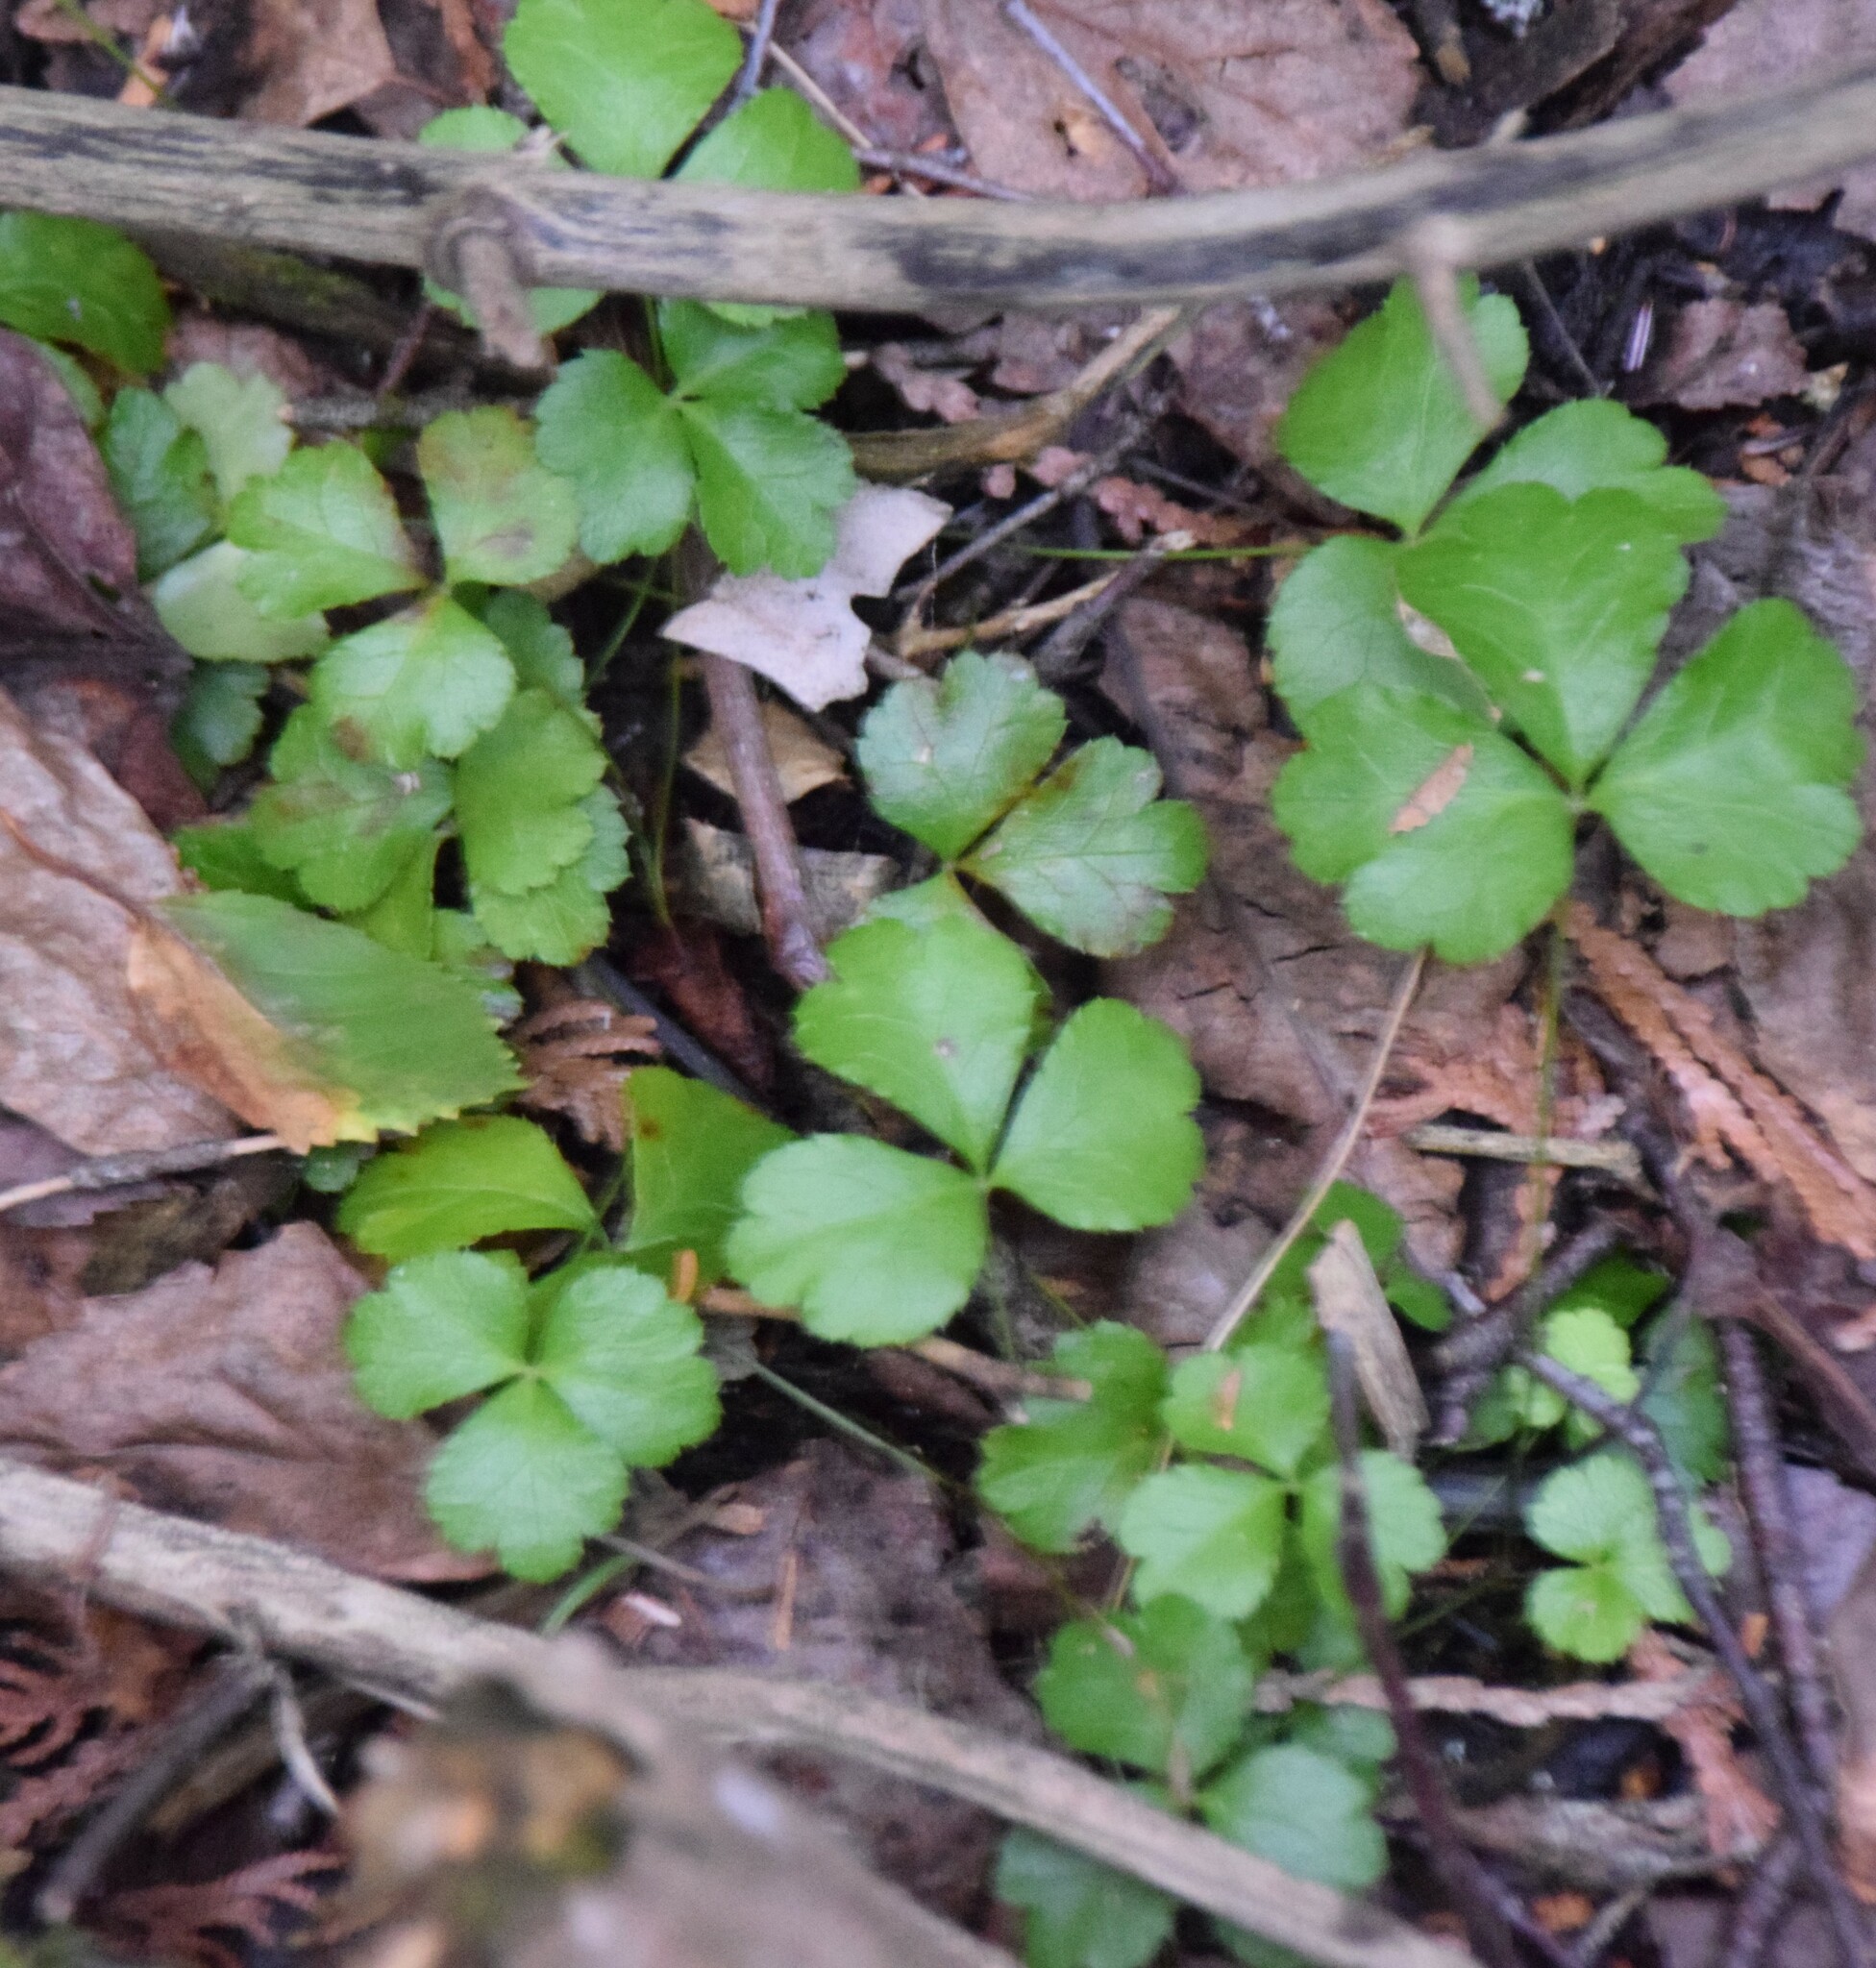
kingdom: Plantae
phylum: Tracheophyta
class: Magnoliopsida
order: Ranunculales
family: Ranunculaceae
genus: Coptis
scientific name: Coptis trifolia
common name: Canker-root
